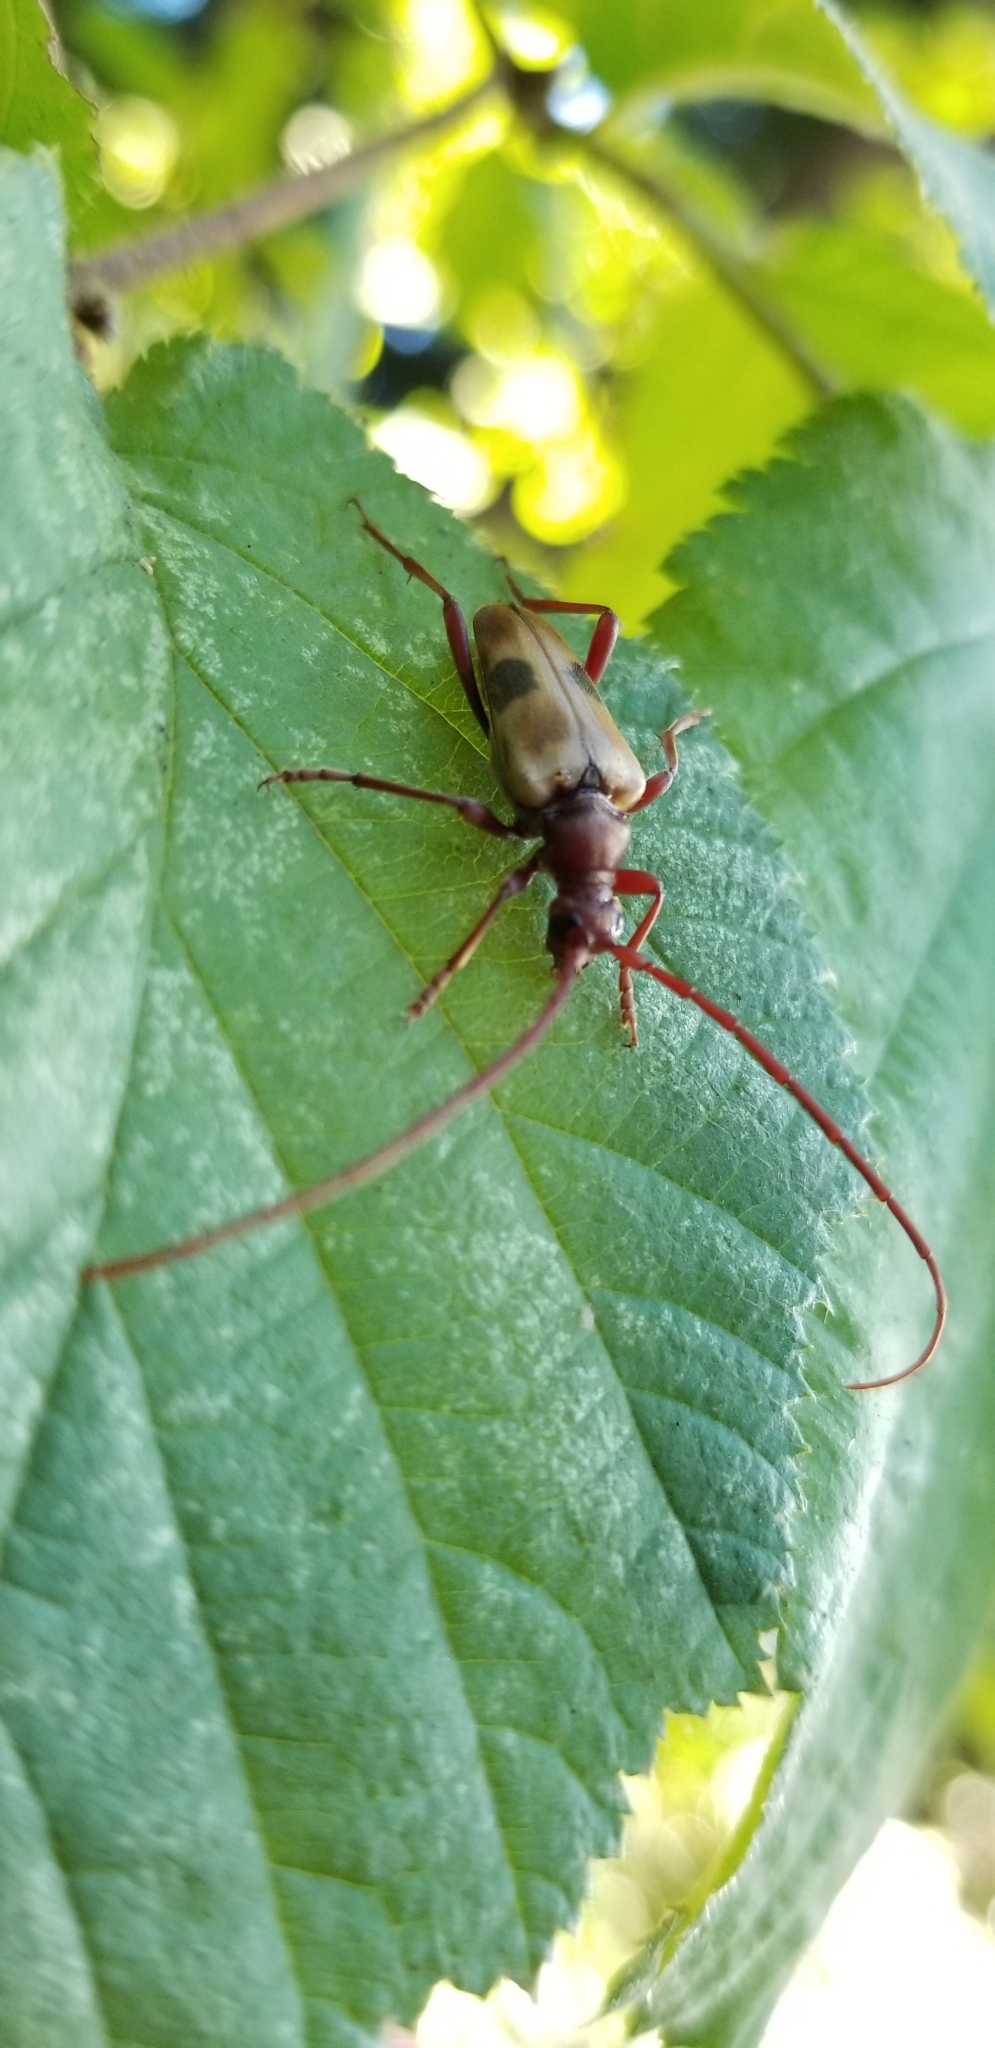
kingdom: Animalia
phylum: Arthropoda
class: Insecta
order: Coleoptera
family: Cerambycidae
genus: Dorcasina
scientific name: Dorcasina matthewsii
